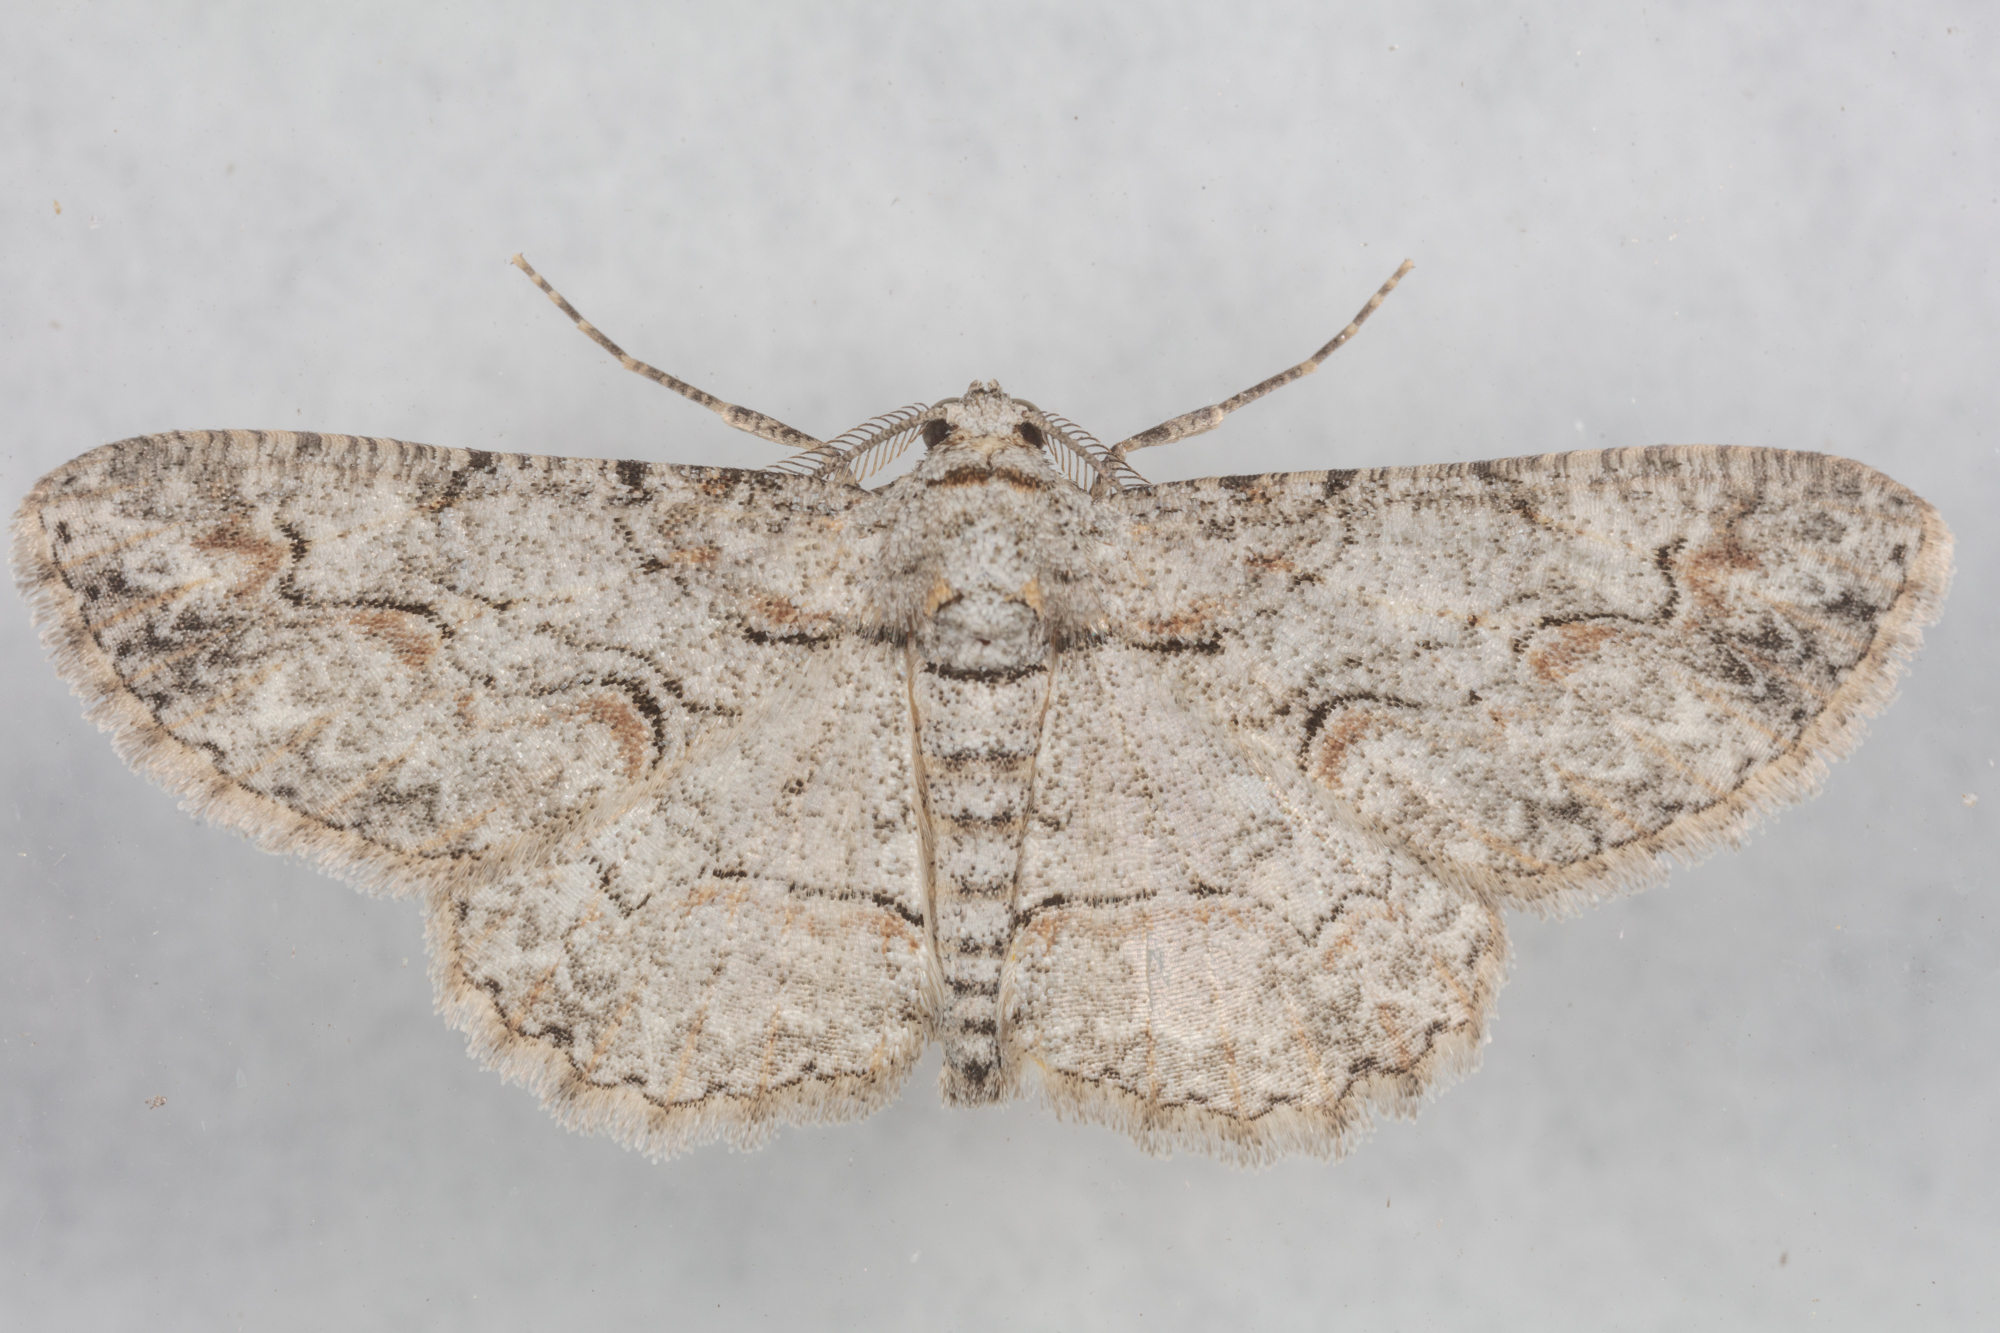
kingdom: Animalia
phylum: Arthropoda
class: Insecta
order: Lepidoptera
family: Geometridae
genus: Iridopsis
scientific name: Iridopsis defectaria
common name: Brown-shaded gray
